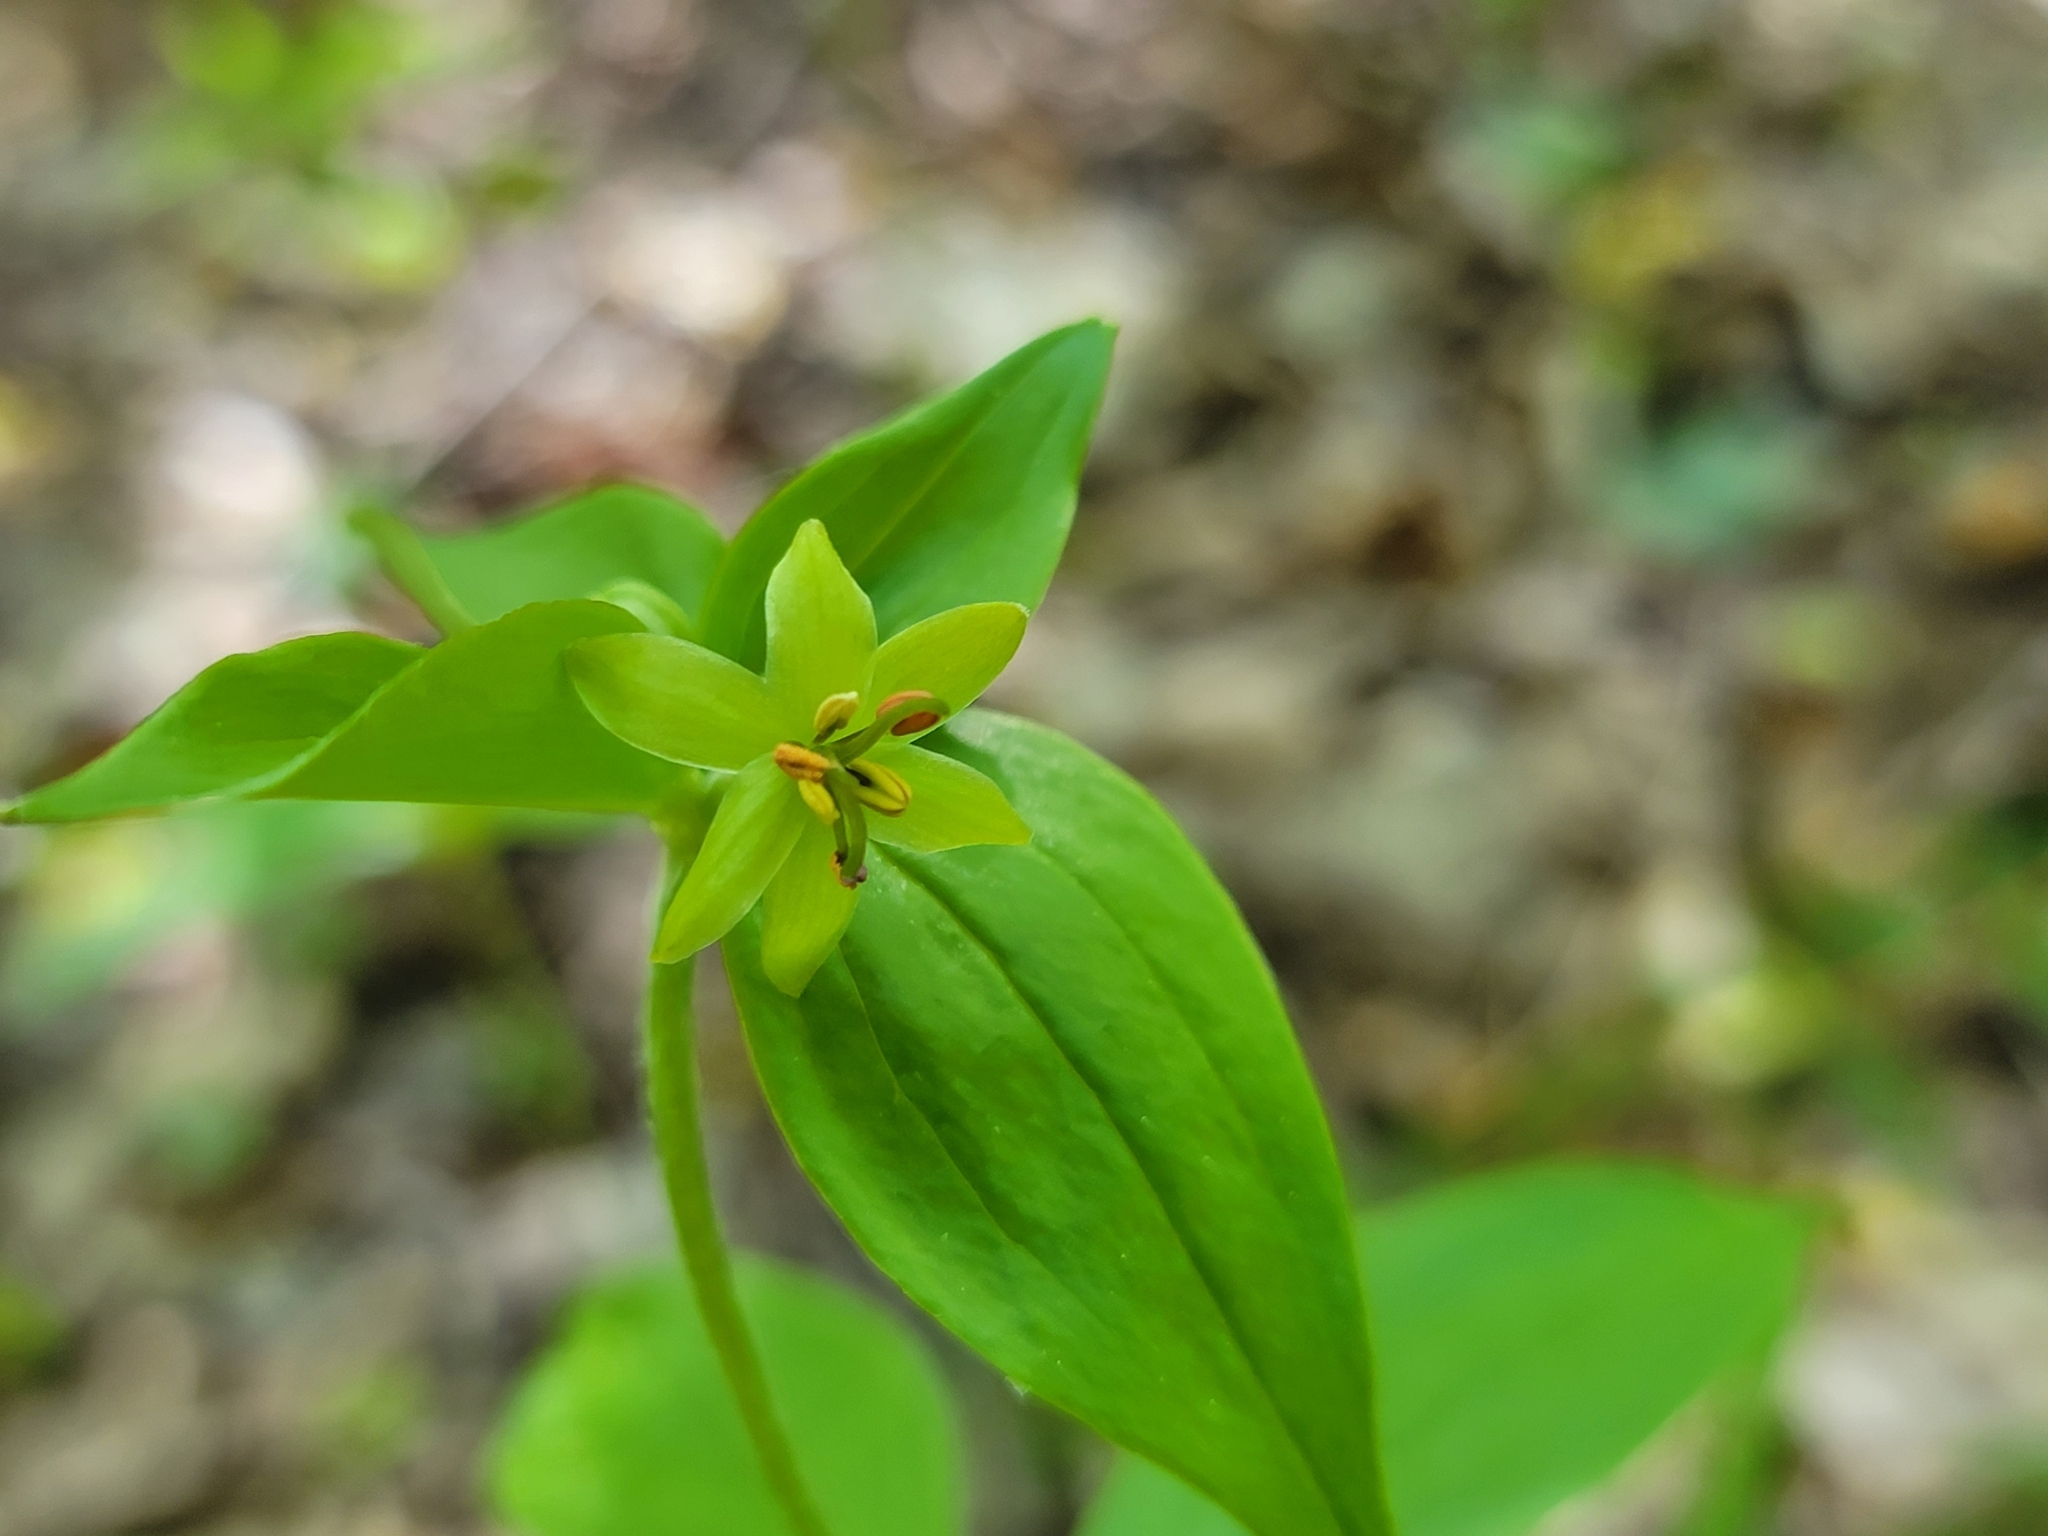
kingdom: Plantae
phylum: Tracheophyta
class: Liliopsida
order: Liliales
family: Liliaceae
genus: Medeola
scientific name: Medeola virginiana
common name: Indian cucumber-root
